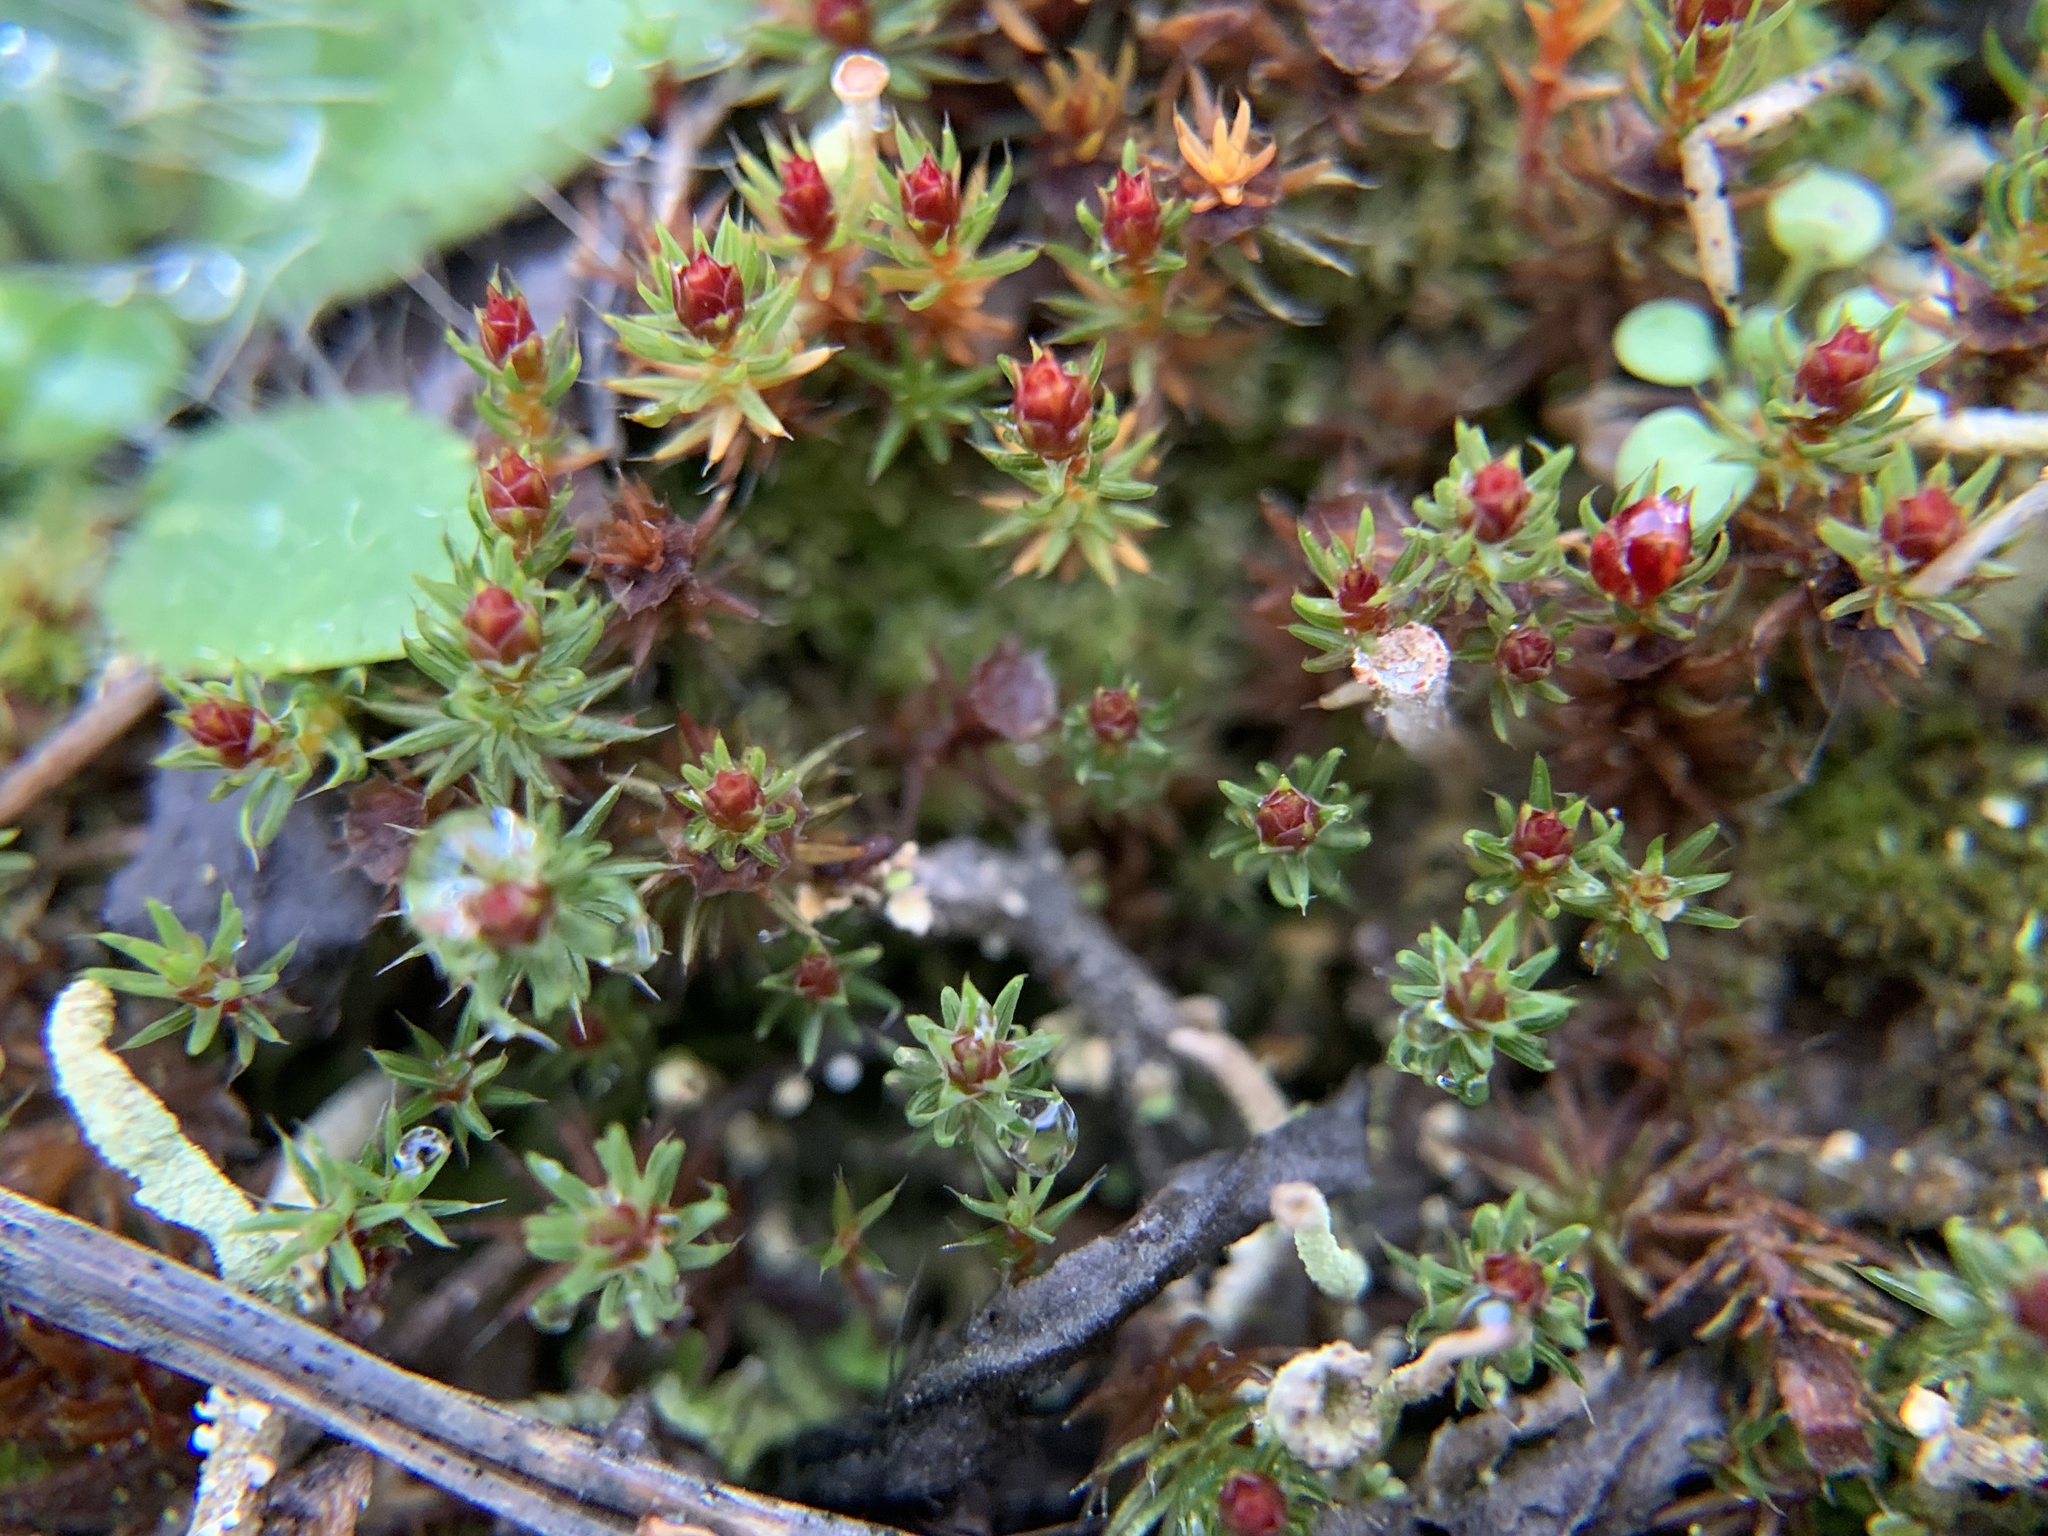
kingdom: Plantae
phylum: Bryophyta
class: Polytrichopsida
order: Polytrichales
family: Polytrichaceae
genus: Polytrichum
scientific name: Polytrichum piliferum
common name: Bristly haircap
